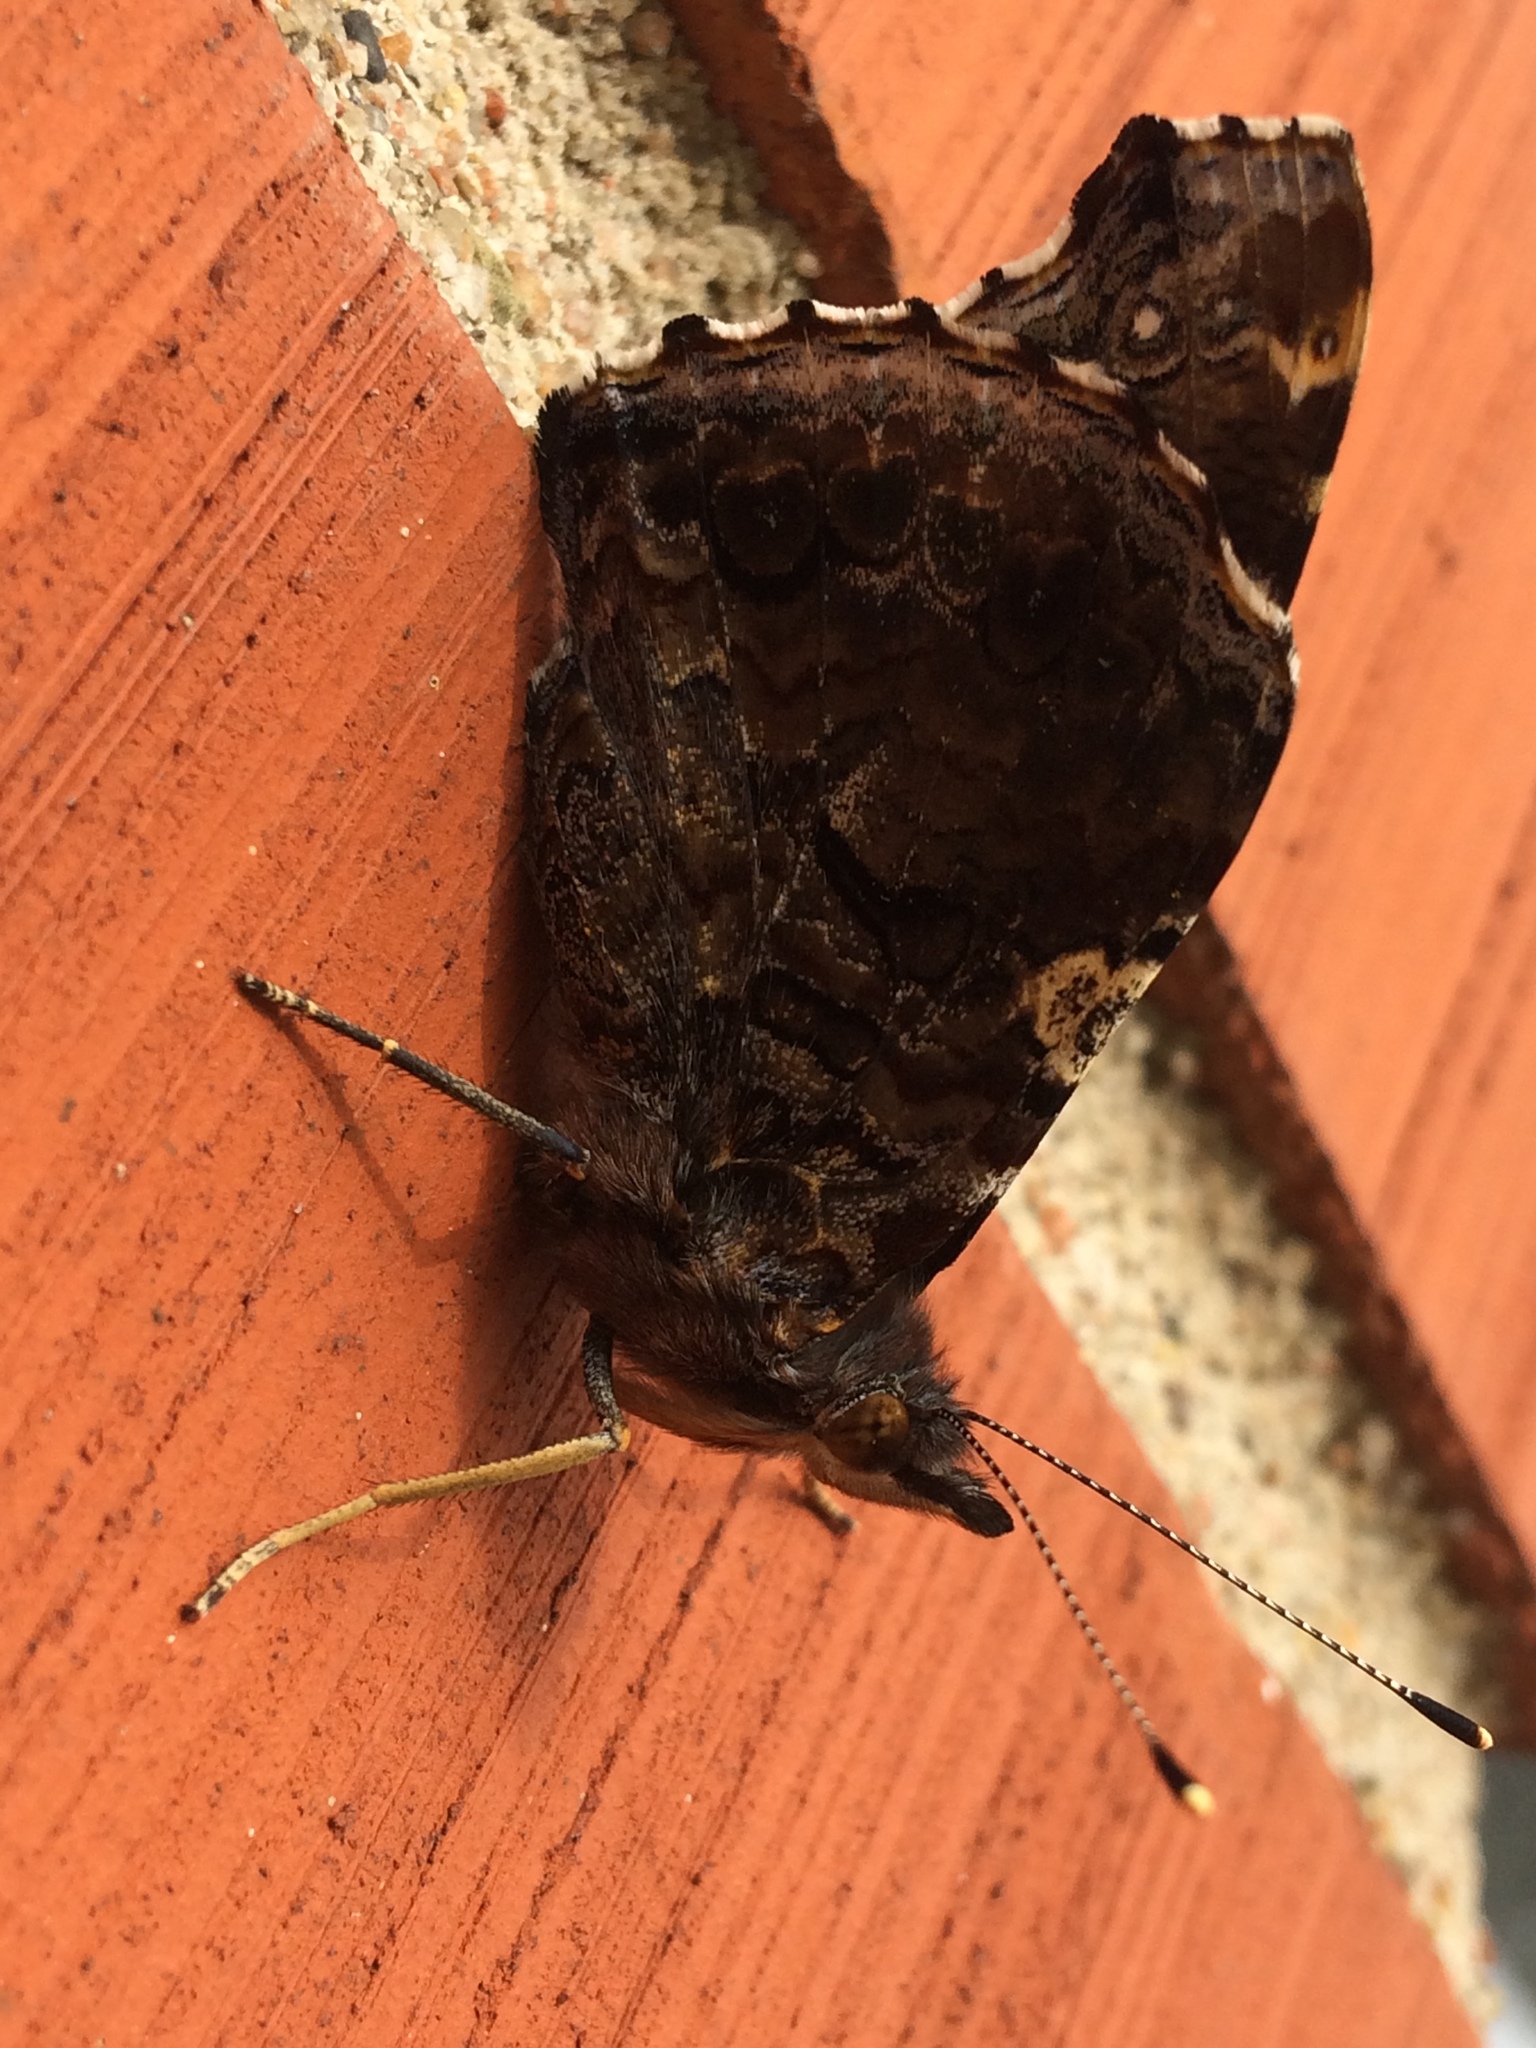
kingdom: Animalia
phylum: Arthropoda
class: Insecta
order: Lepidoptera
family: Nymphalidae
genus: Vanessa
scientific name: Vanessa atalanta
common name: Red admiral
